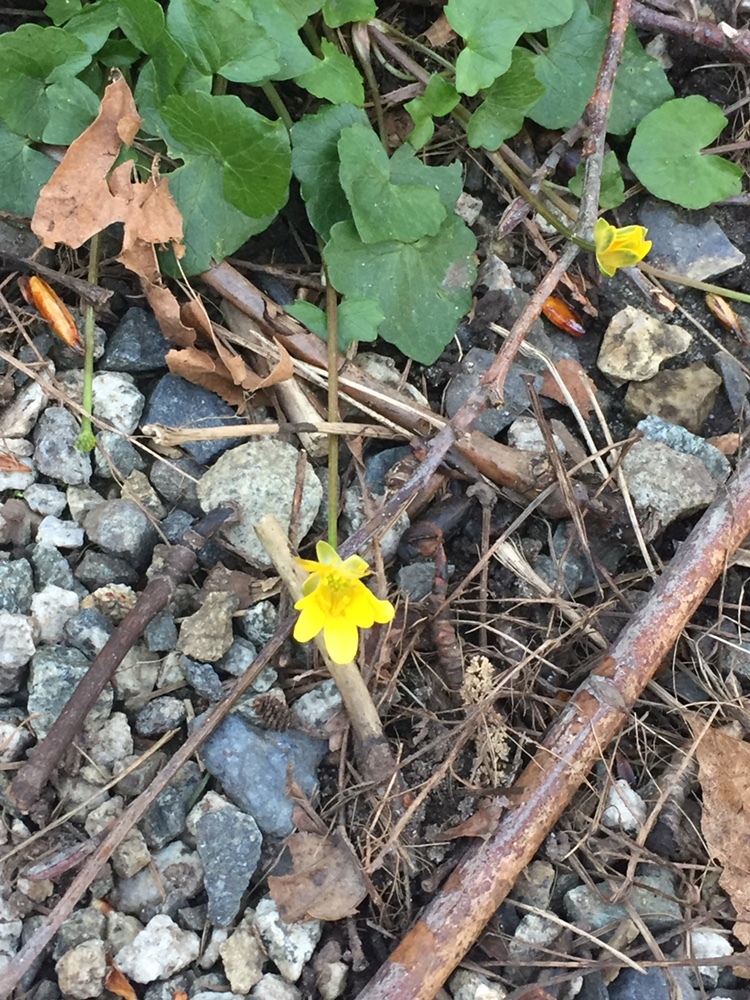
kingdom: Plantae
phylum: Tracheophyta
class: Magnoliopsida
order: Ranunculales
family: Ranunculaceae
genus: Ficaria
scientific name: Ficaria verna
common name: Lesser celandine
